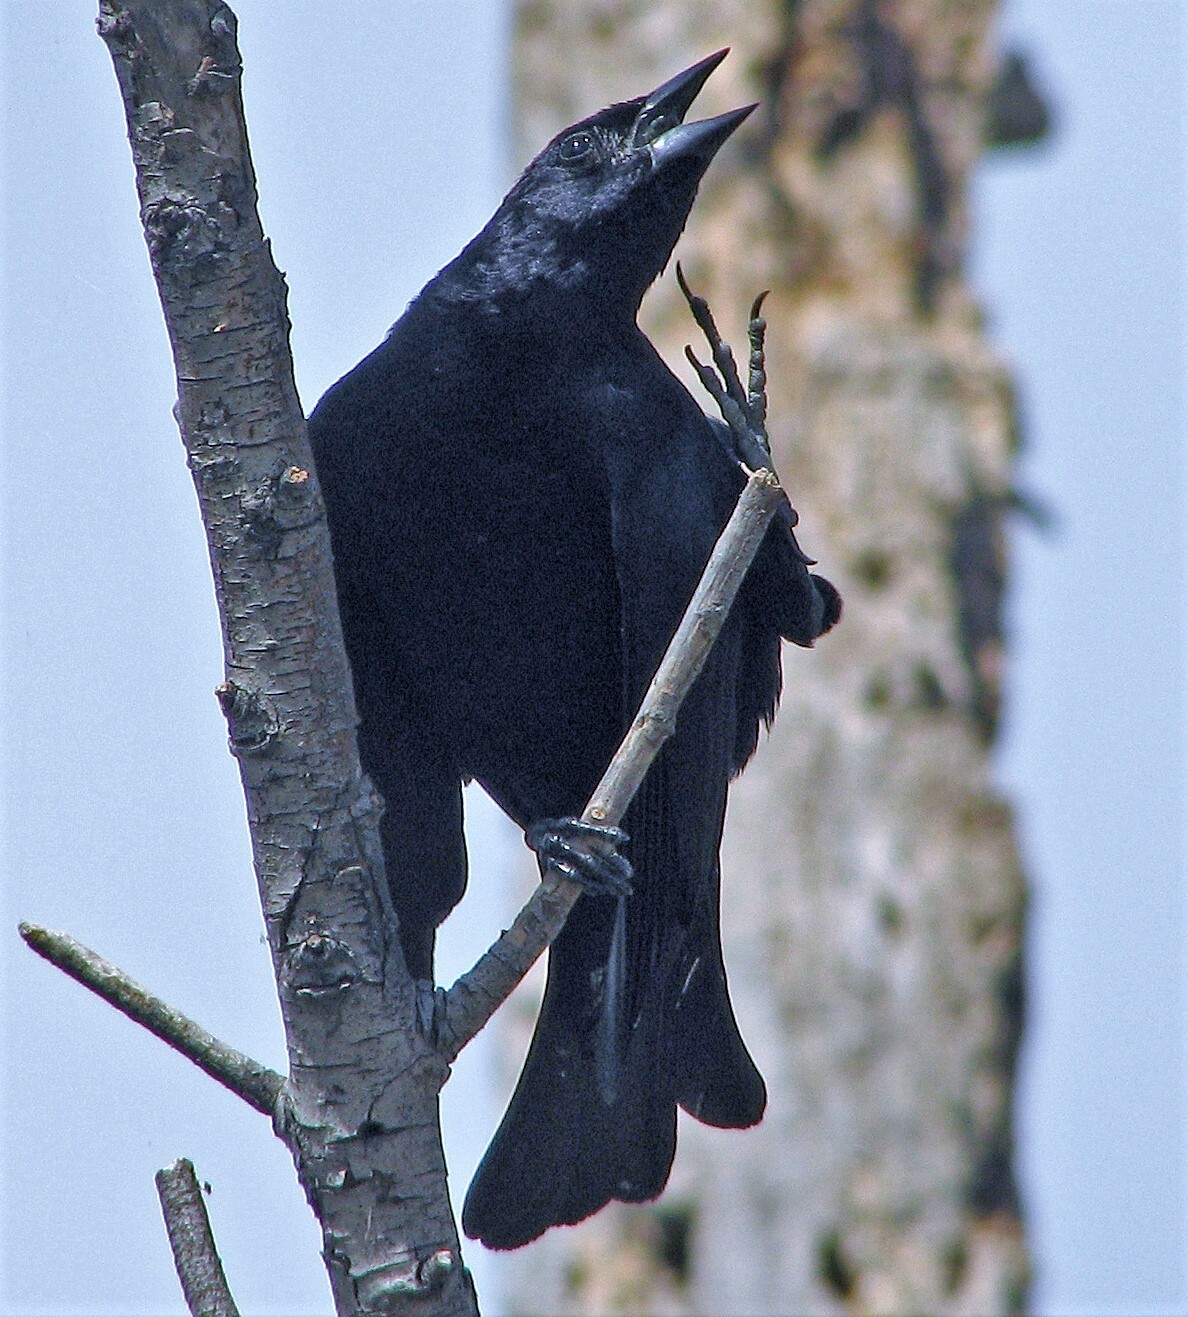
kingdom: Animalia
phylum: Chordata
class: Aves
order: Passeriformes
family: Icteridae
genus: Molothrus
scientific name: Molothrus bonariensis
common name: Shiny cowbird
